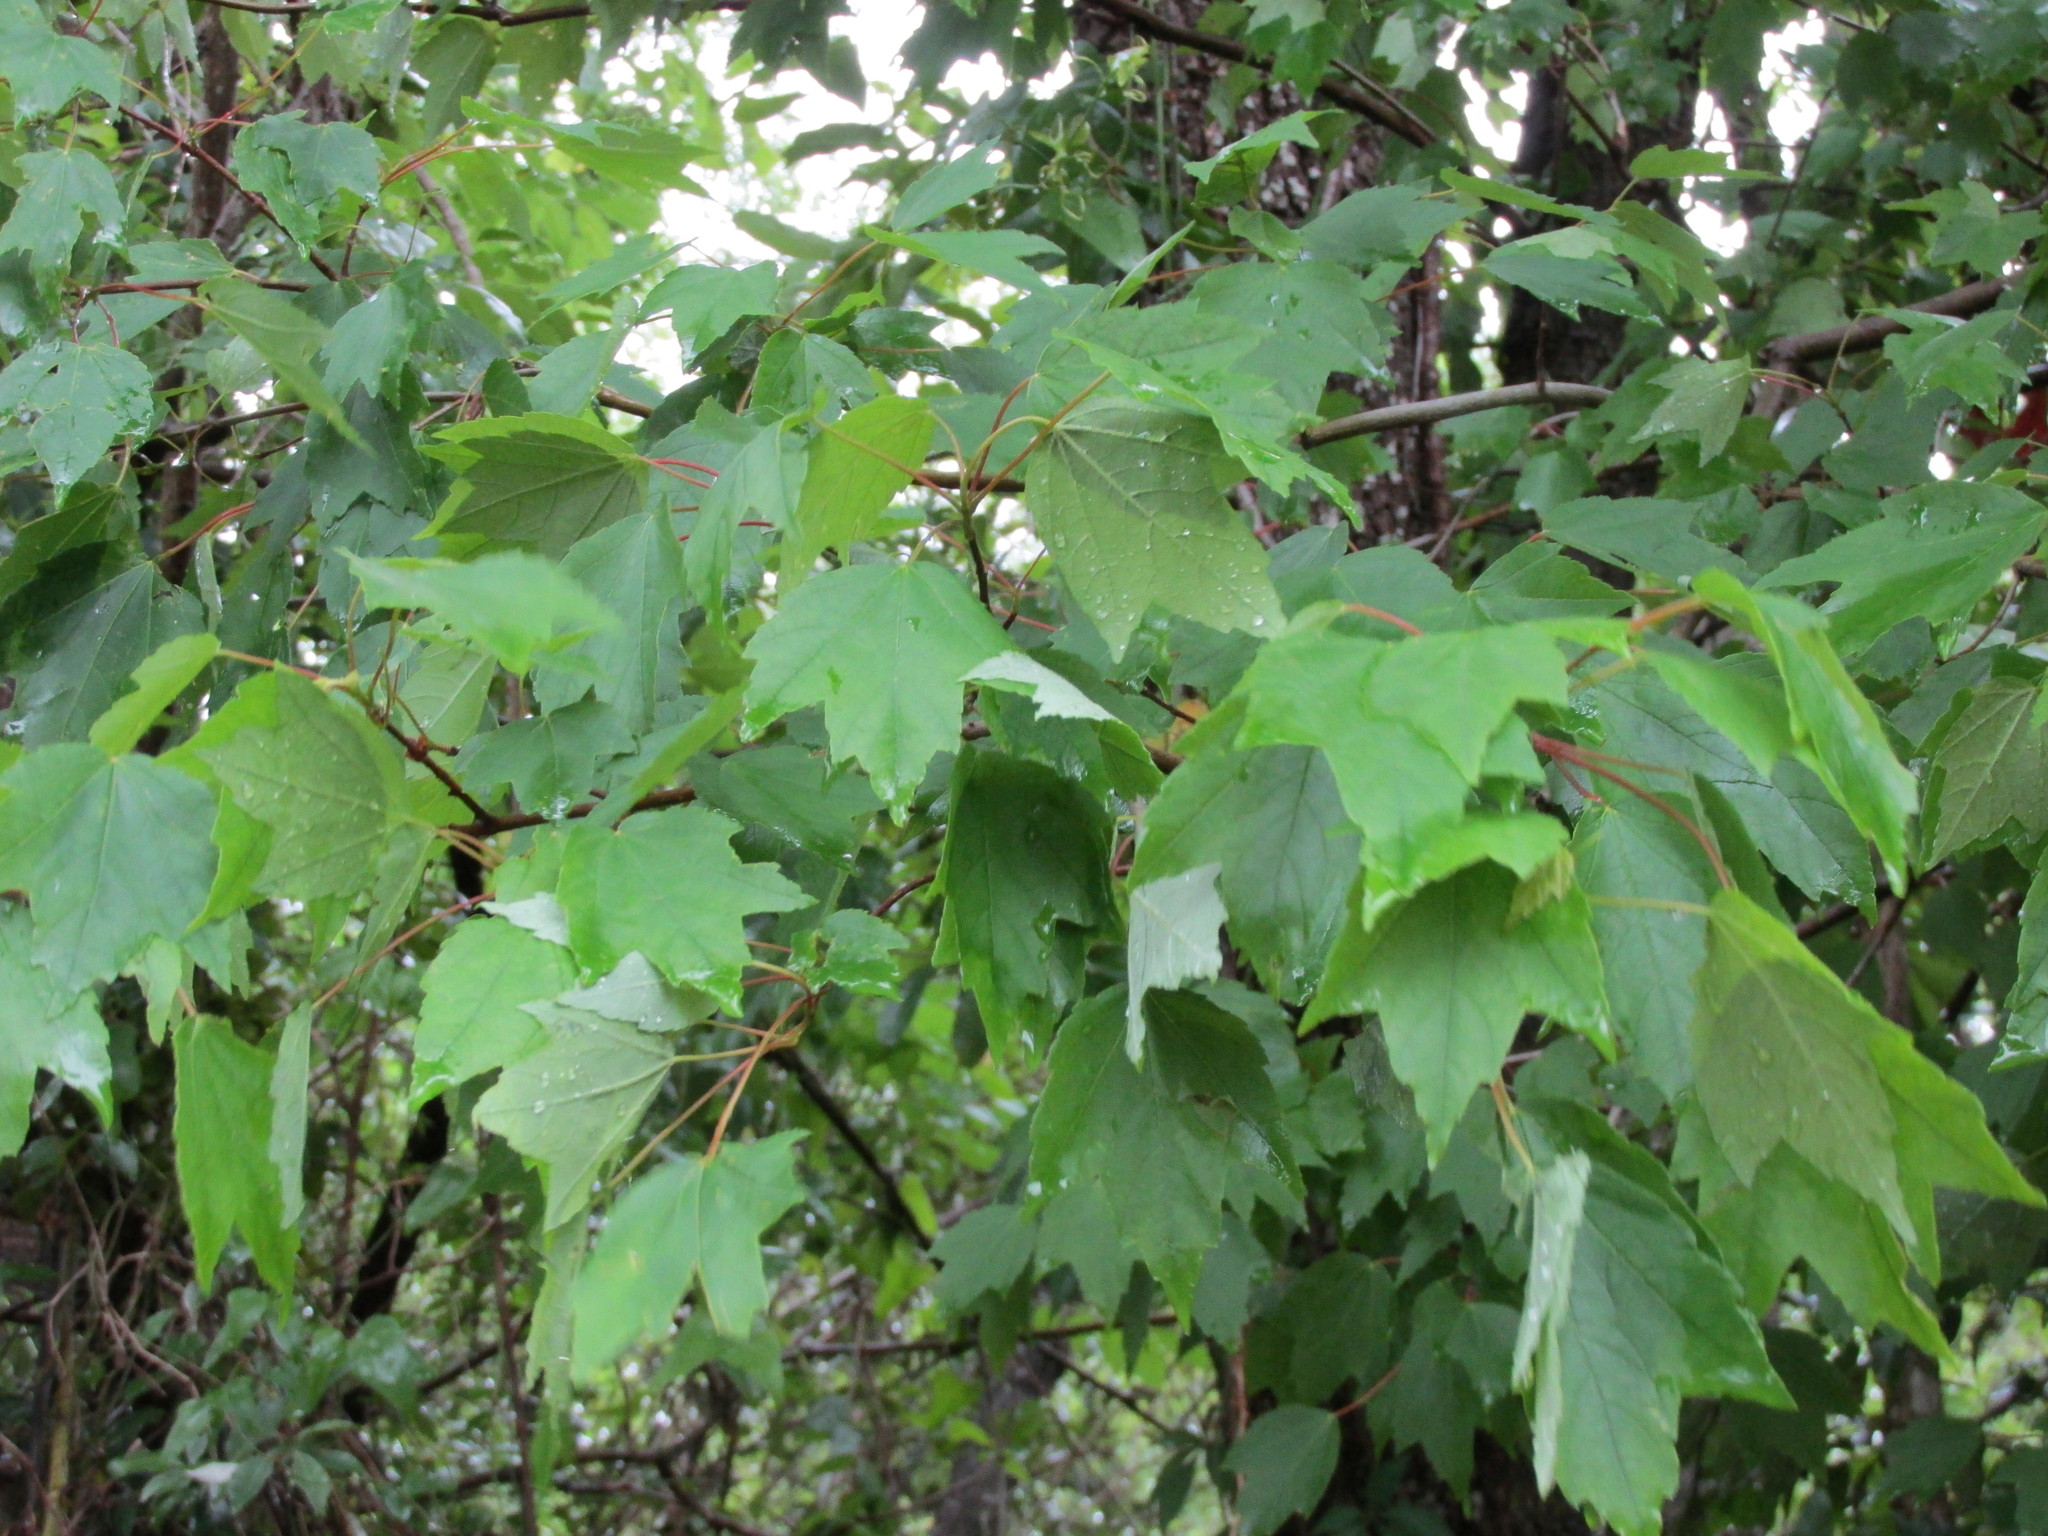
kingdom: Plantae
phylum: Tracheophyta
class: Magnoliopsida
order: Sapindales
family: Sapindaceae
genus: Acer
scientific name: Acer rubrum
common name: Red maple
